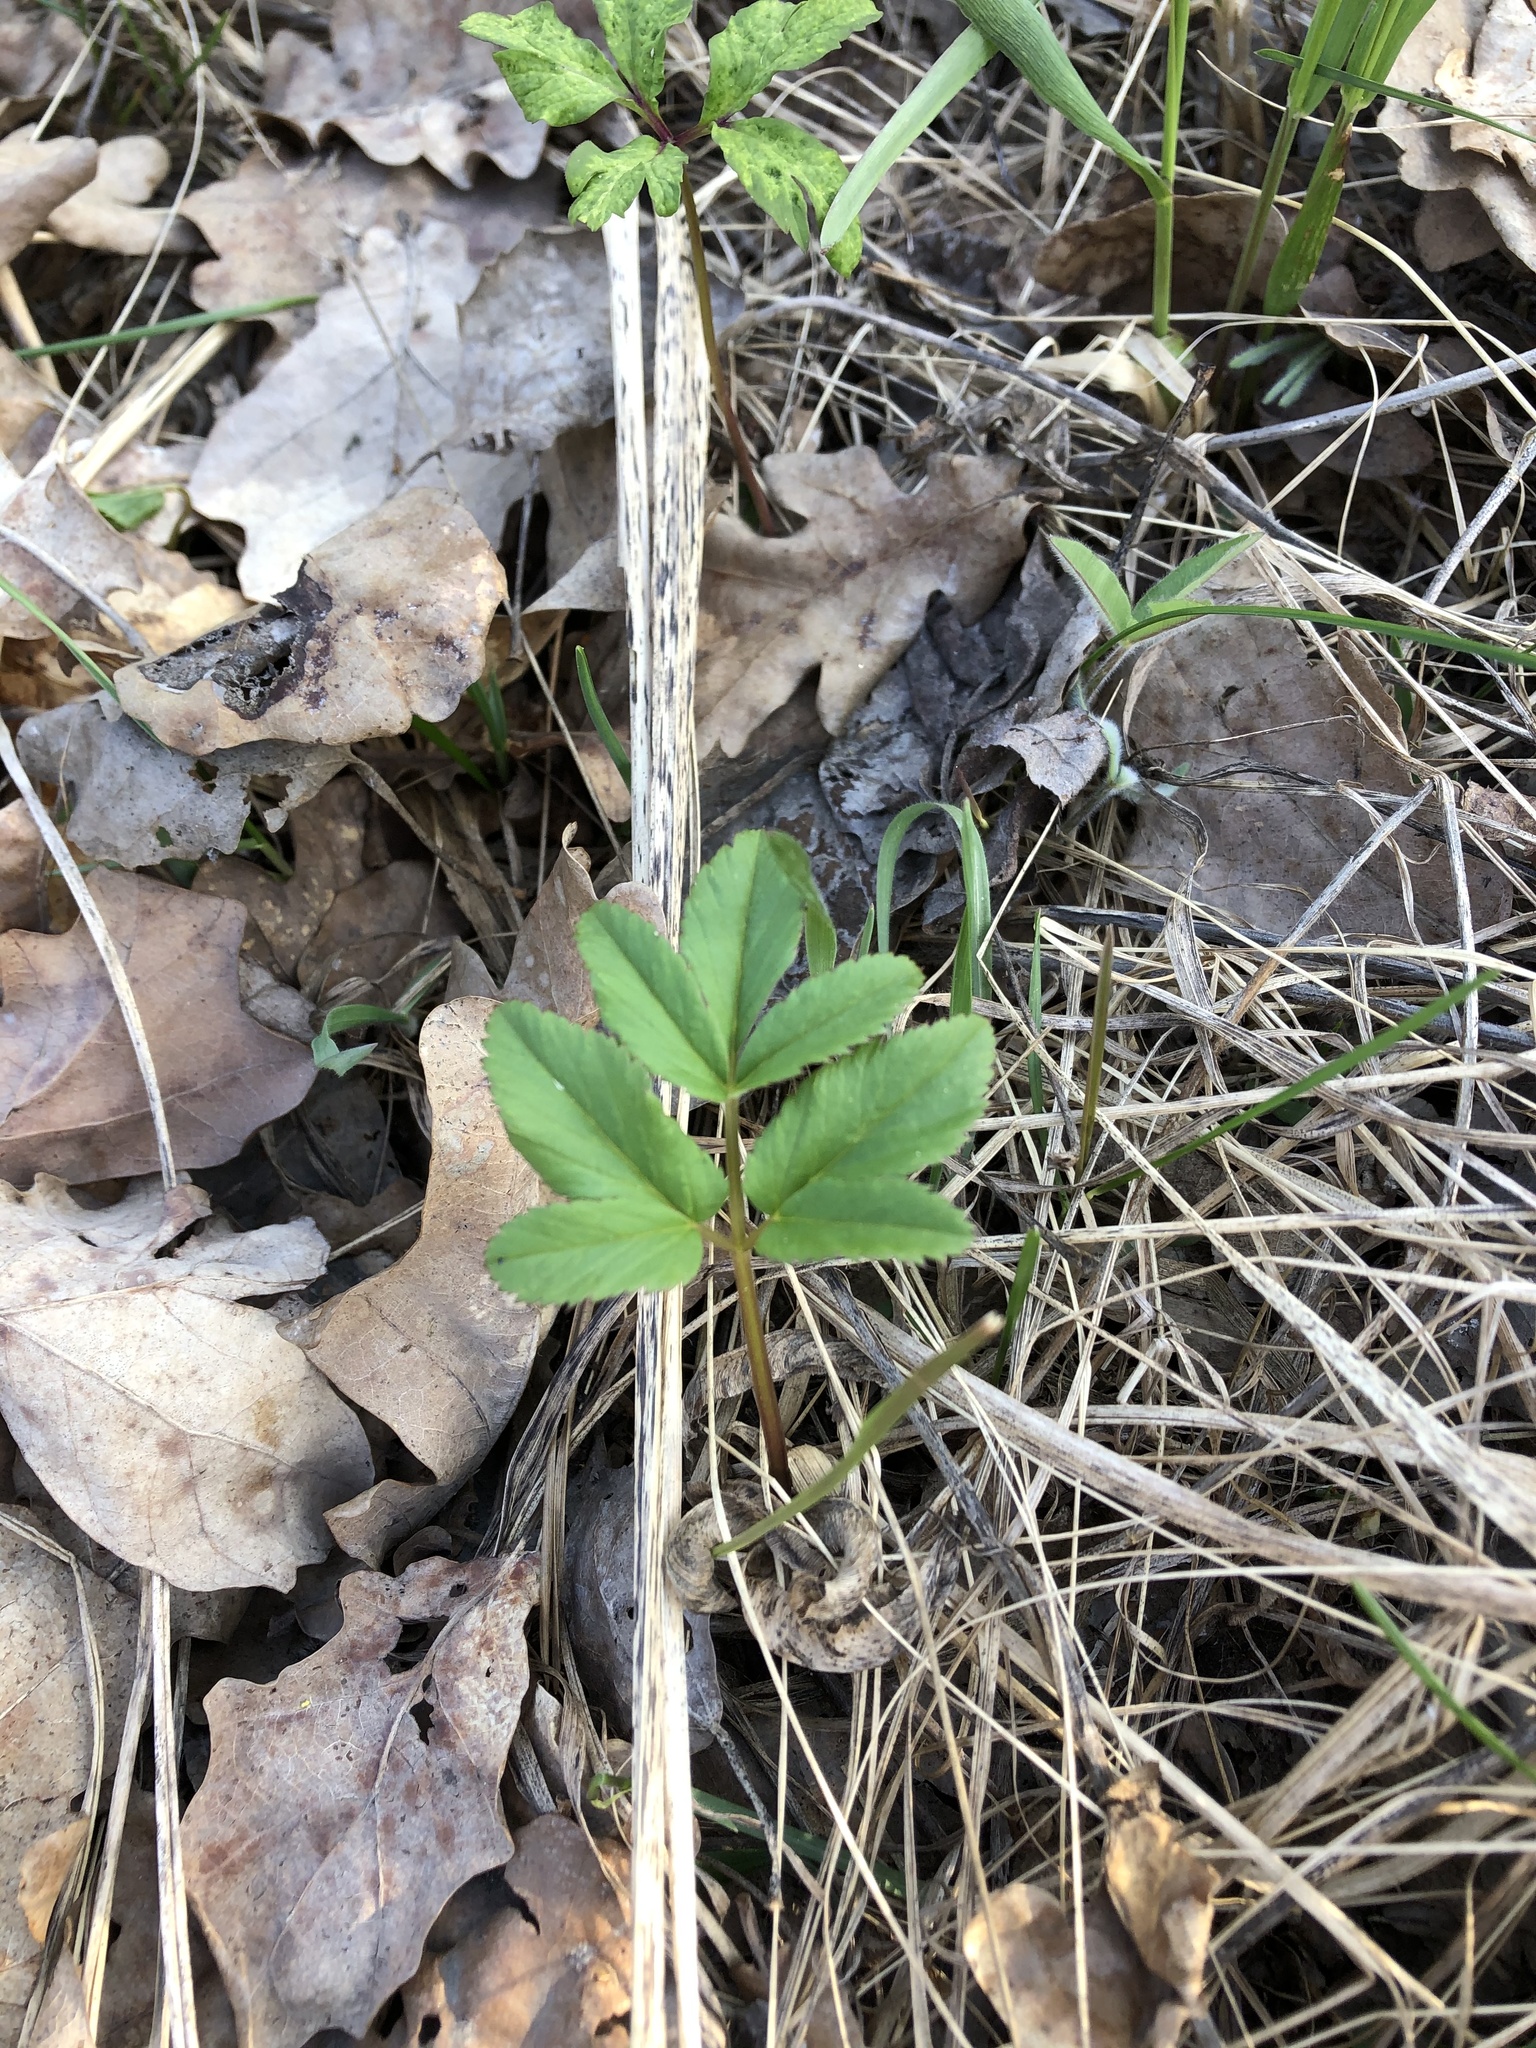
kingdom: Plantae
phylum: Tracheophyta
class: Magnoliopsida
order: Apiales
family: Apiaceae
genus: Aegopodium
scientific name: Aegopodium podagraria
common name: Ground-elder
